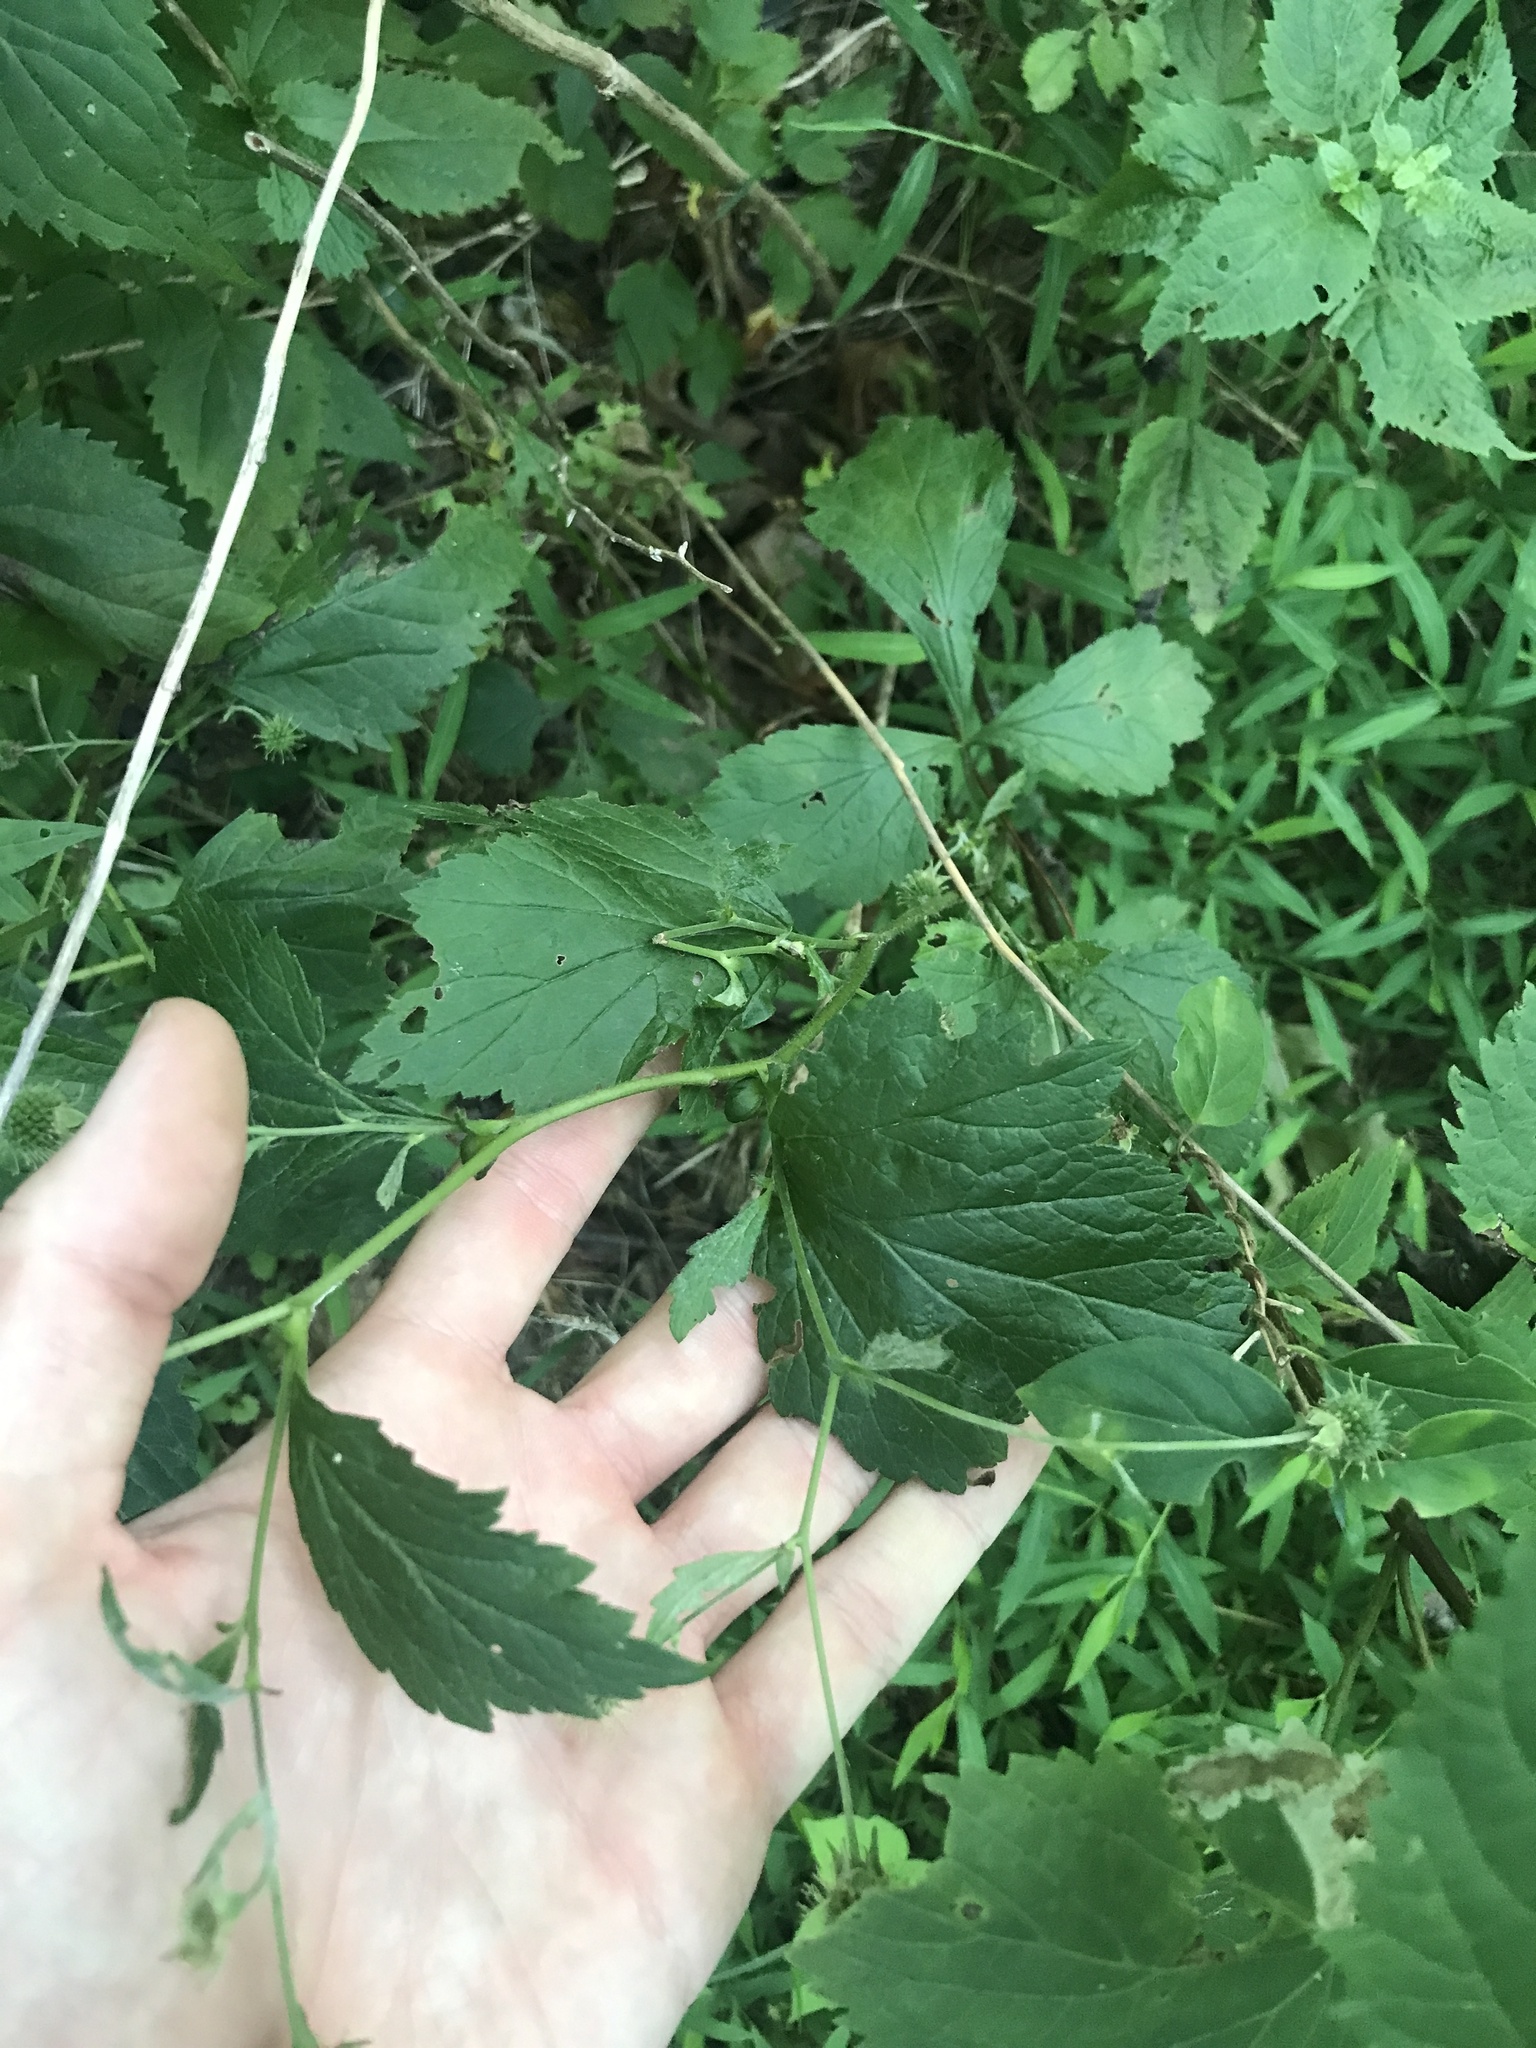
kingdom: Plantae
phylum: Tracheophyta
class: Magnoliopsida
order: Rosales
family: Rosaceae
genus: Geum
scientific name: Geum canadense
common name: White avens
